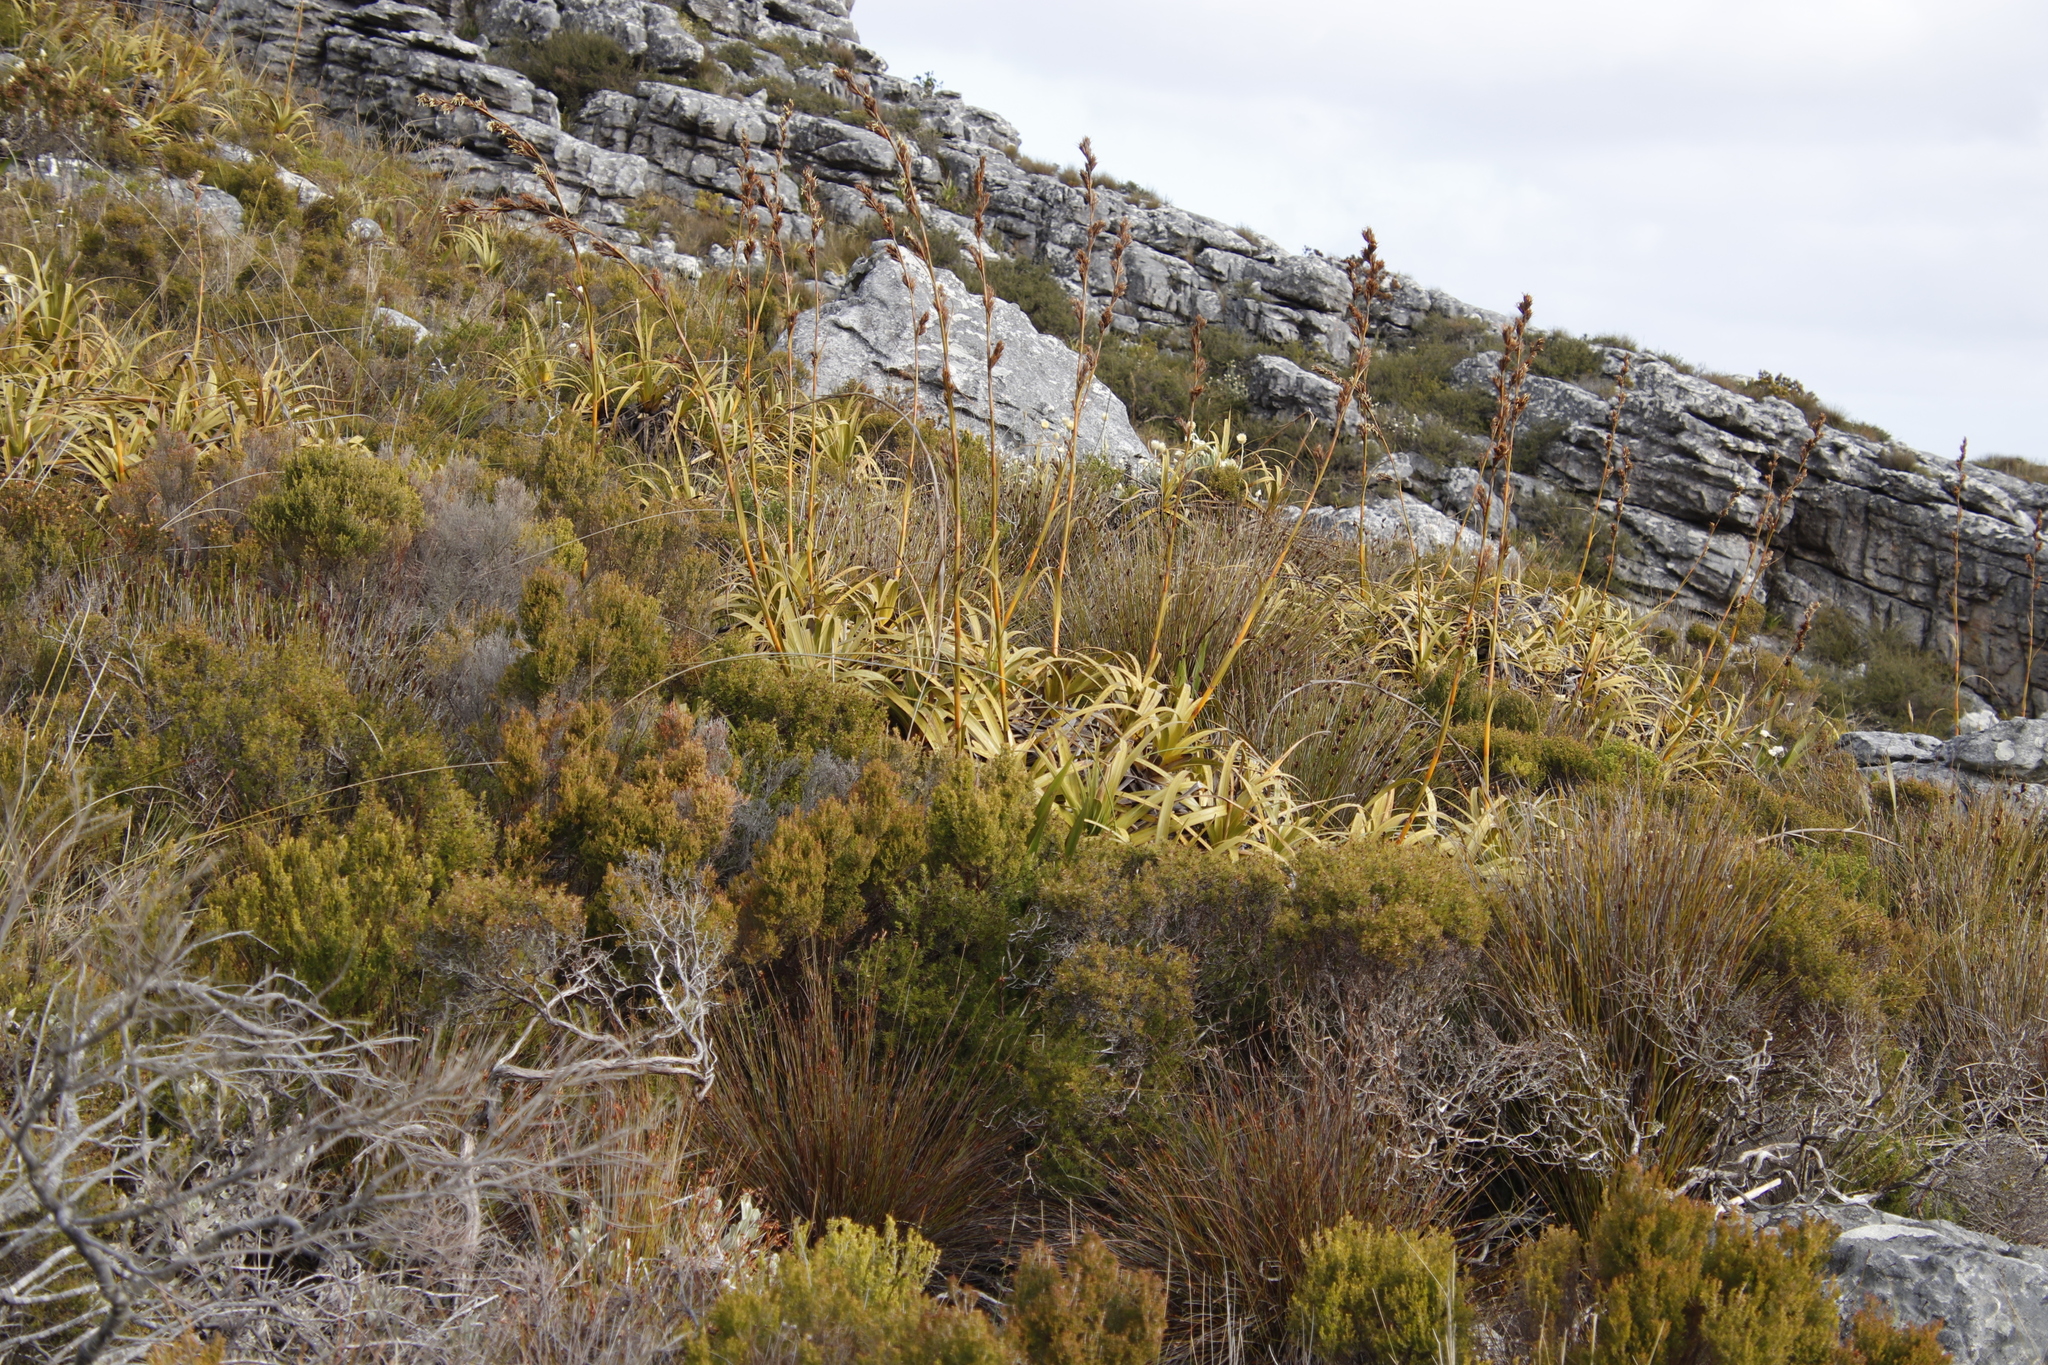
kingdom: Plantae
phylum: Tracheophyta
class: Liliopsida
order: Poales
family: Cyperaceae
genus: Tetraria
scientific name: Tetraria thermalis
